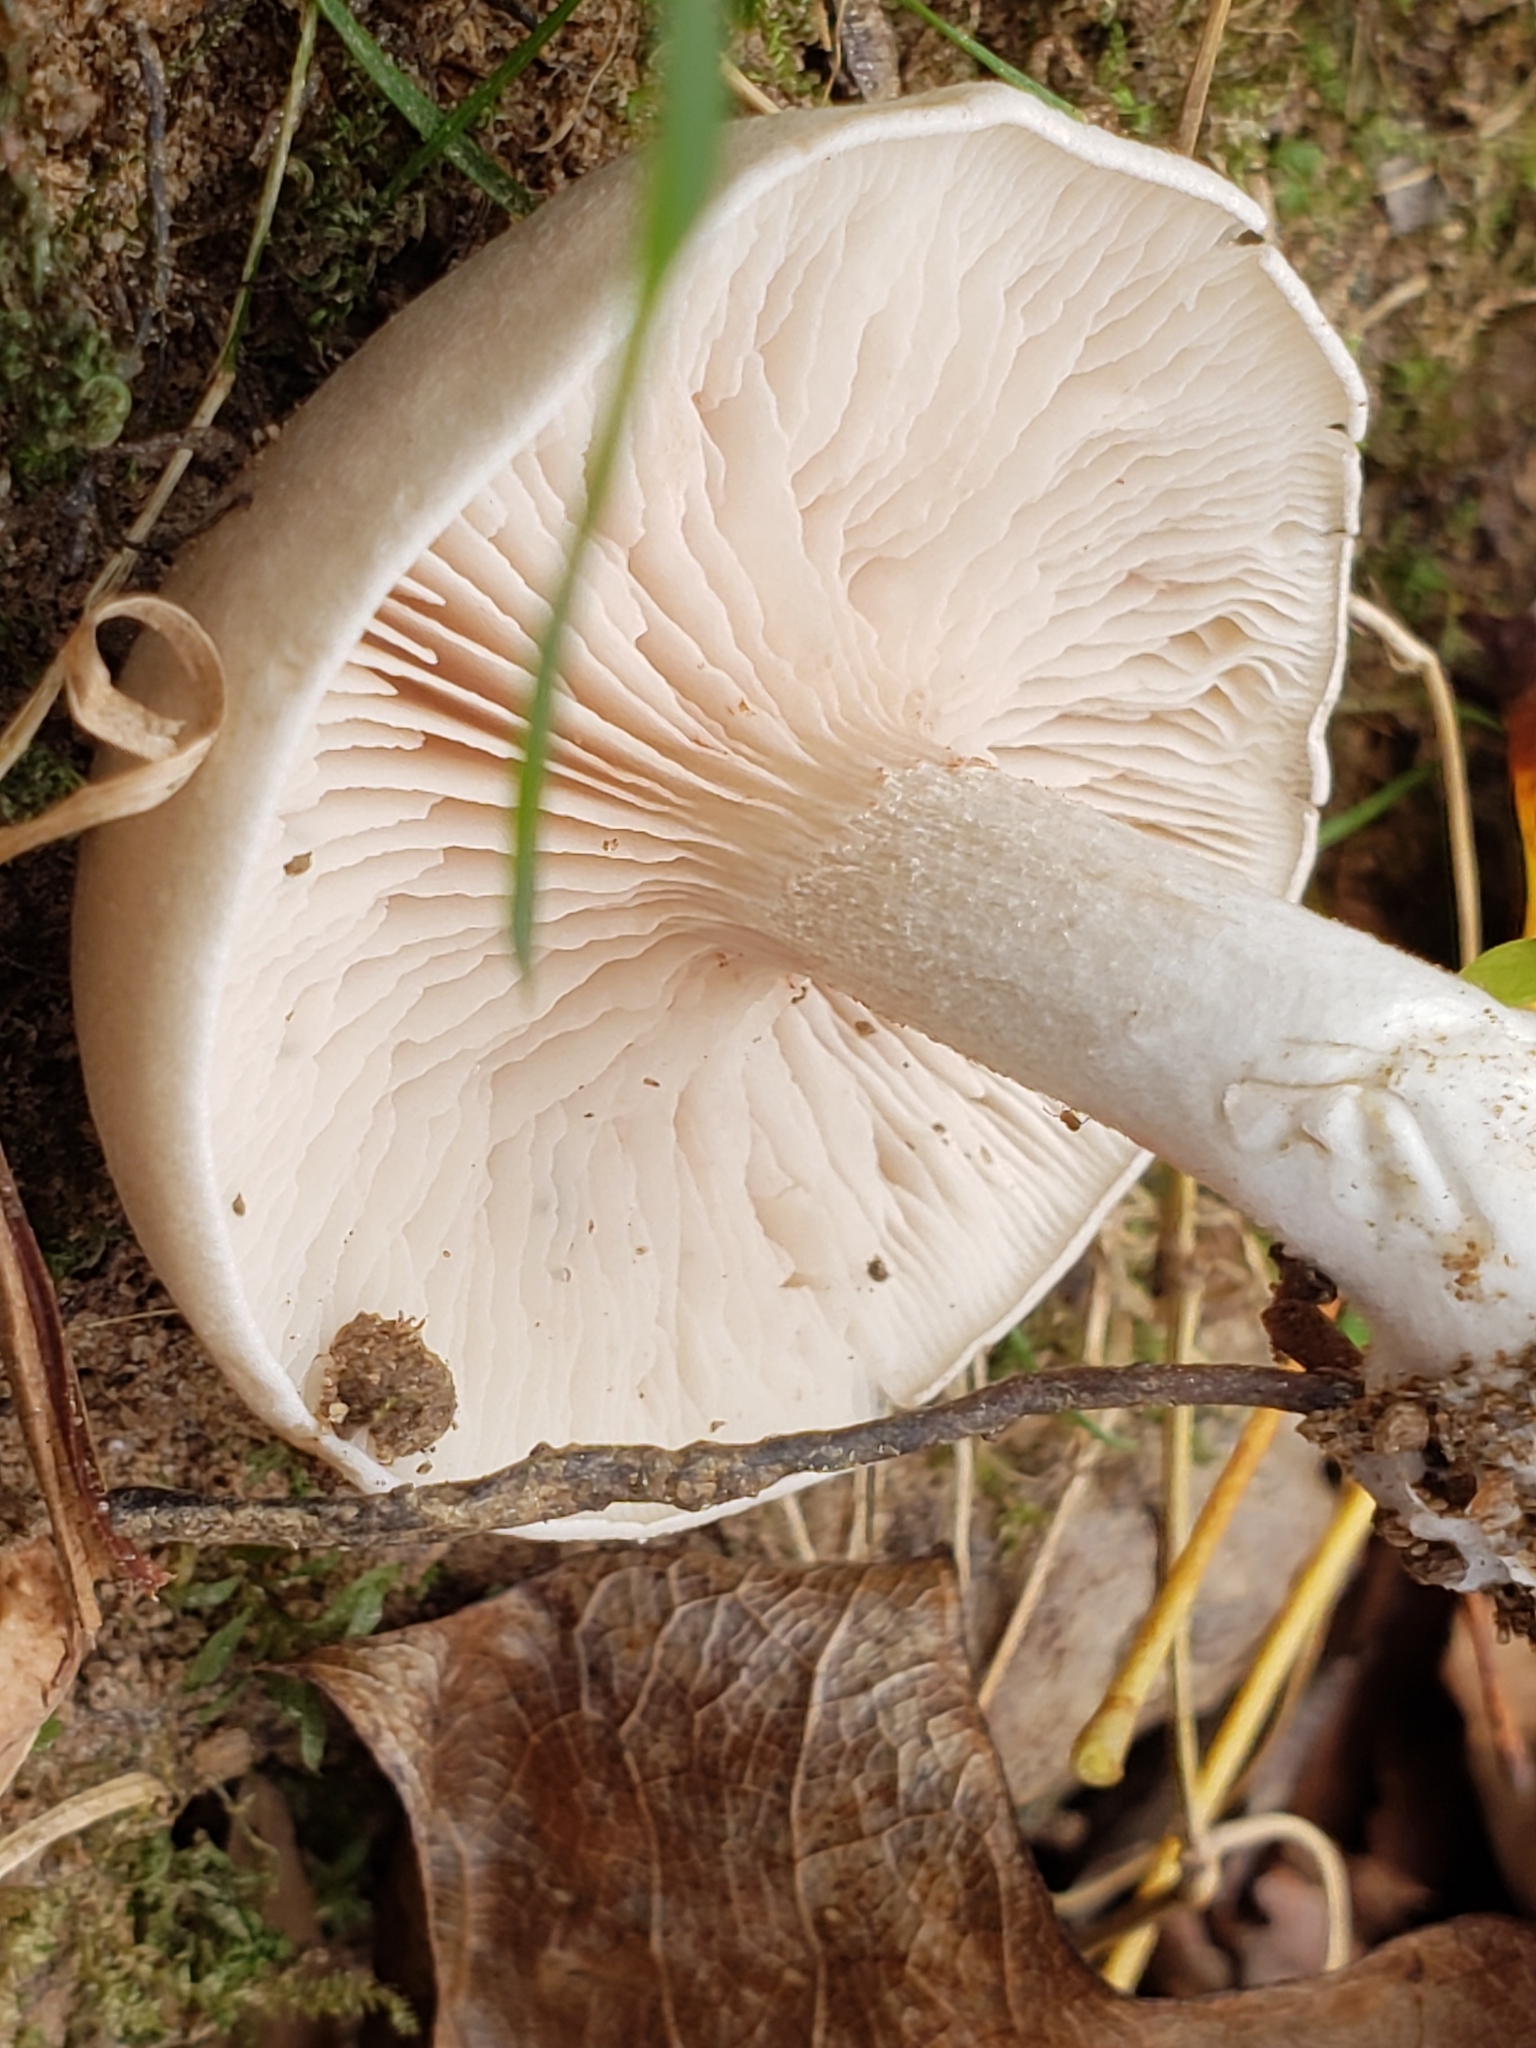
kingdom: Fungi
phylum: Basidiomycota
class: Agaricomycetes
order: Agaricales
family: Entolomataceae
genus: Entoloma
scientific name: Entoloma abortivum
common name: Aborted entoloma
